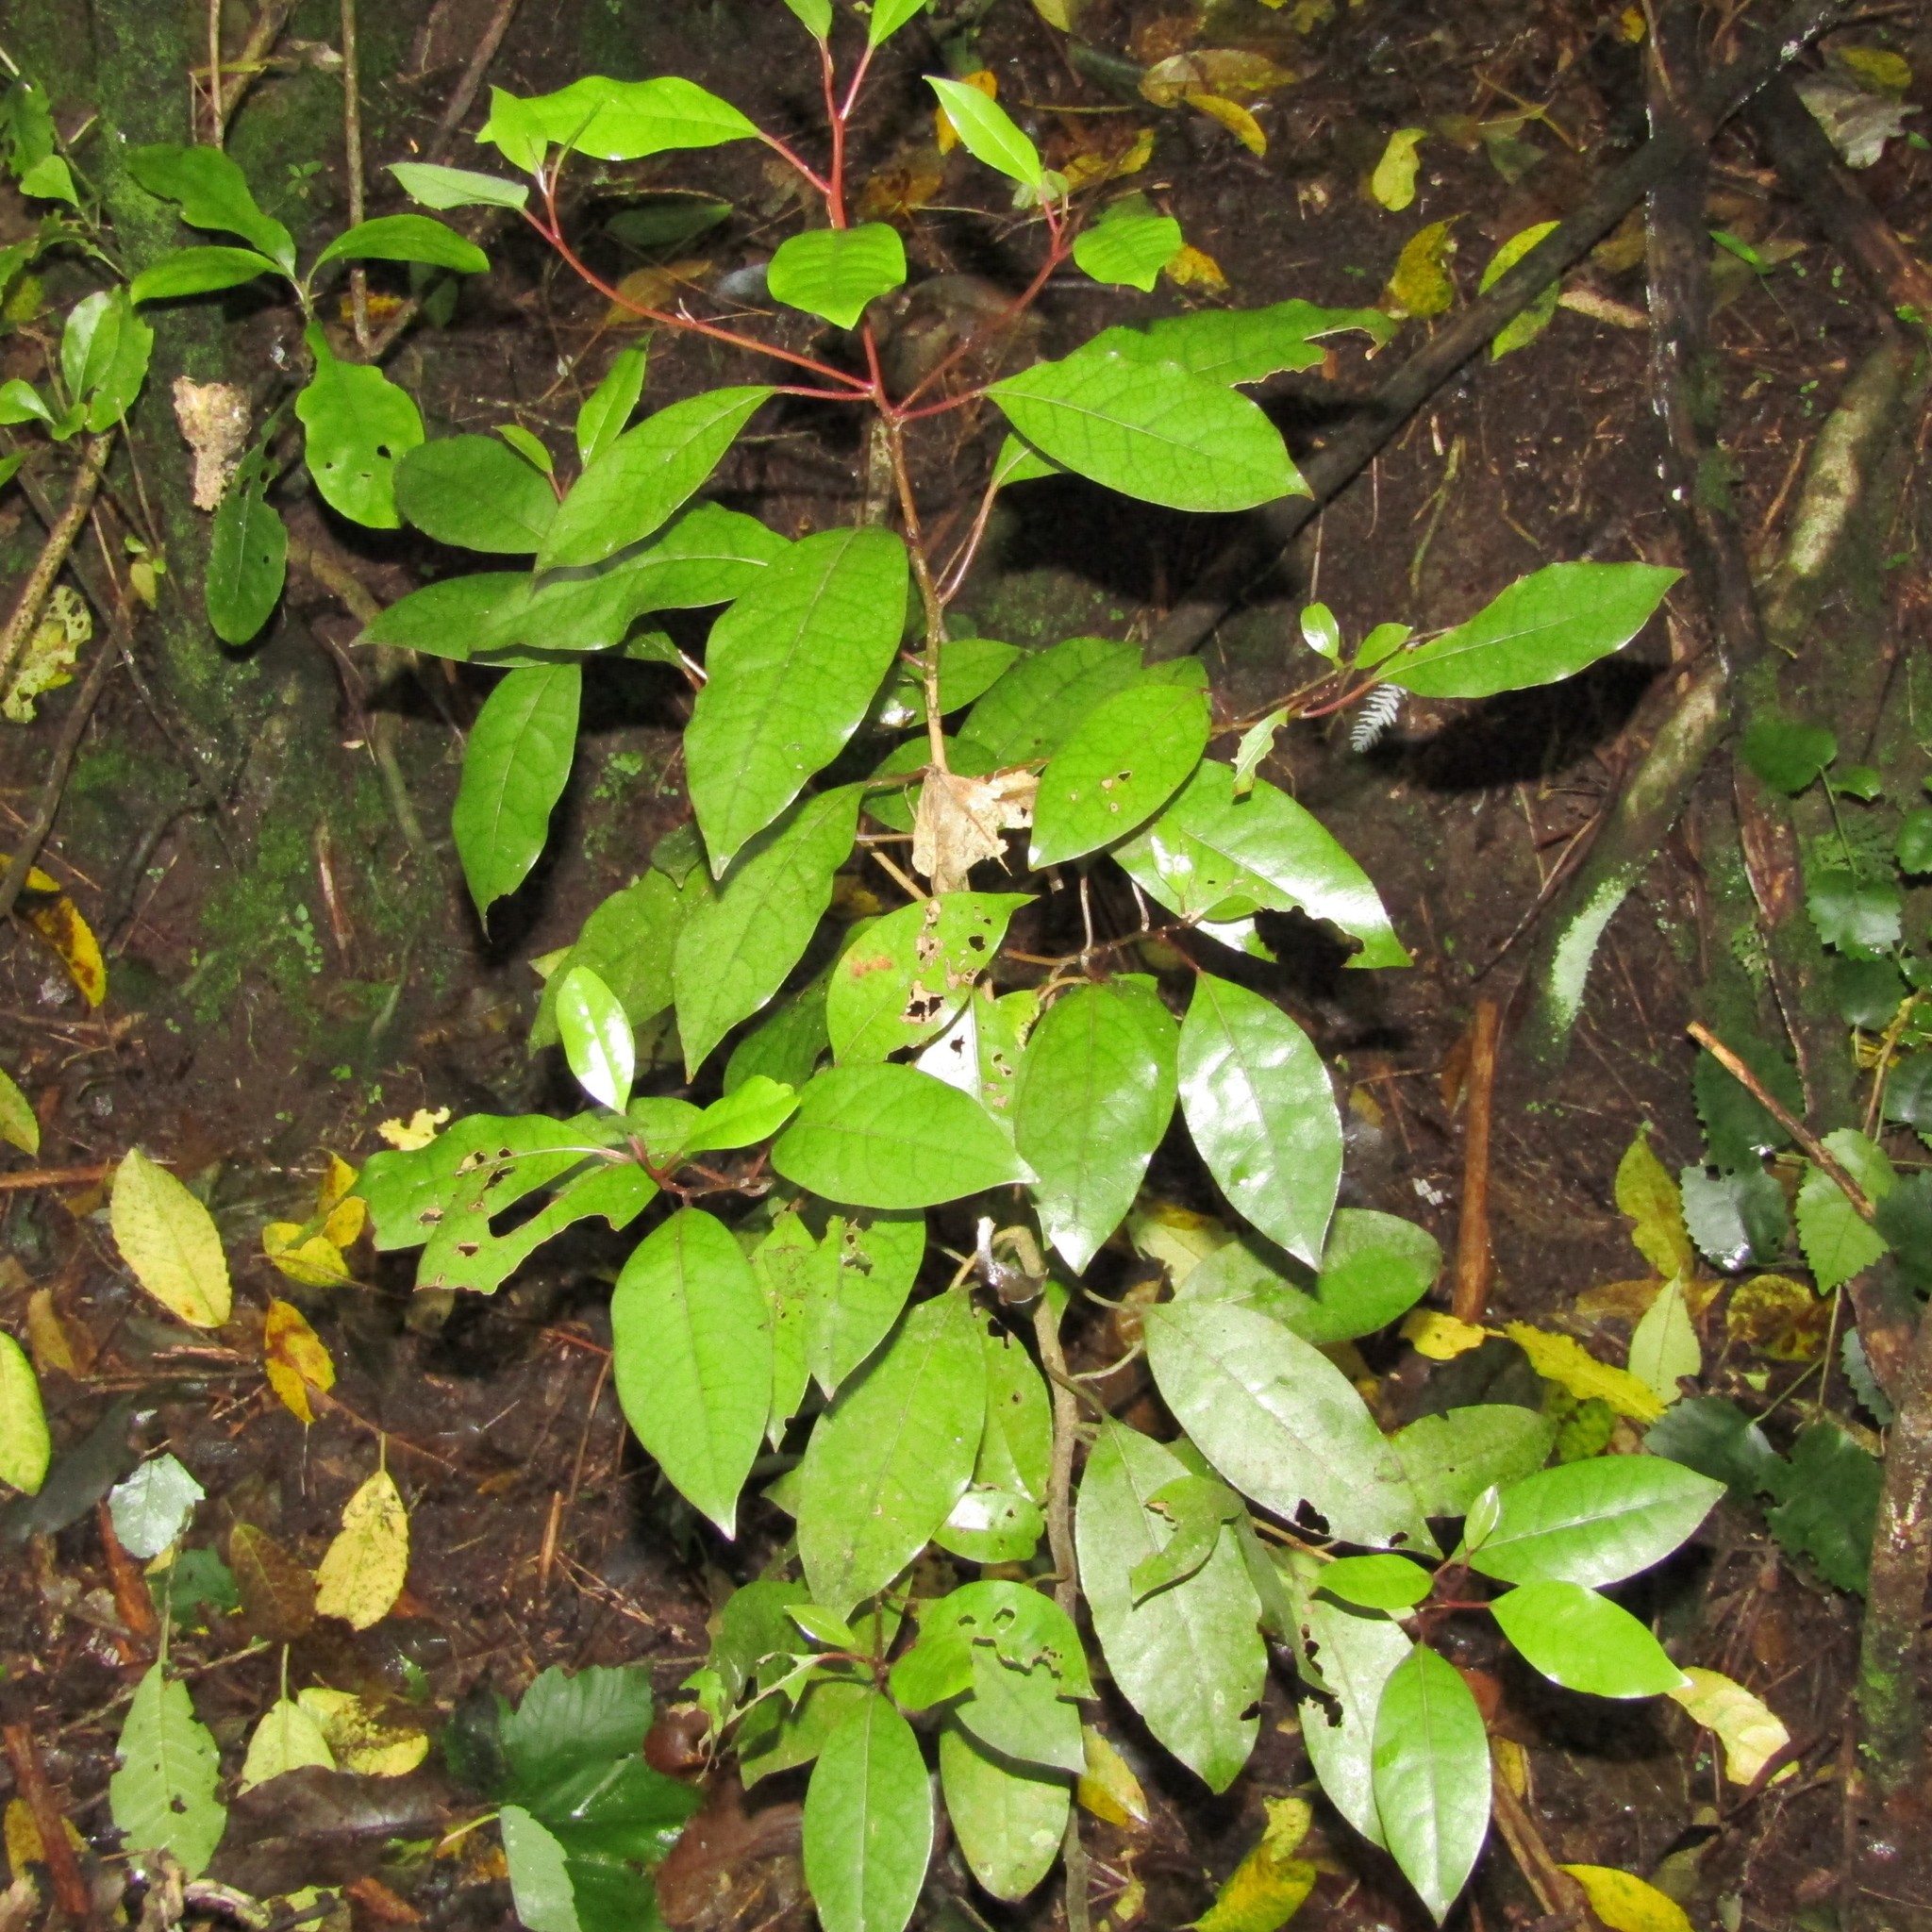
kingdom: Plantae
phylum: Tracheophyta
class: Magnoliopsida
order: Laurales
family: Lauraceae
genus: Litsea
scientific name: Litsea calicaris
